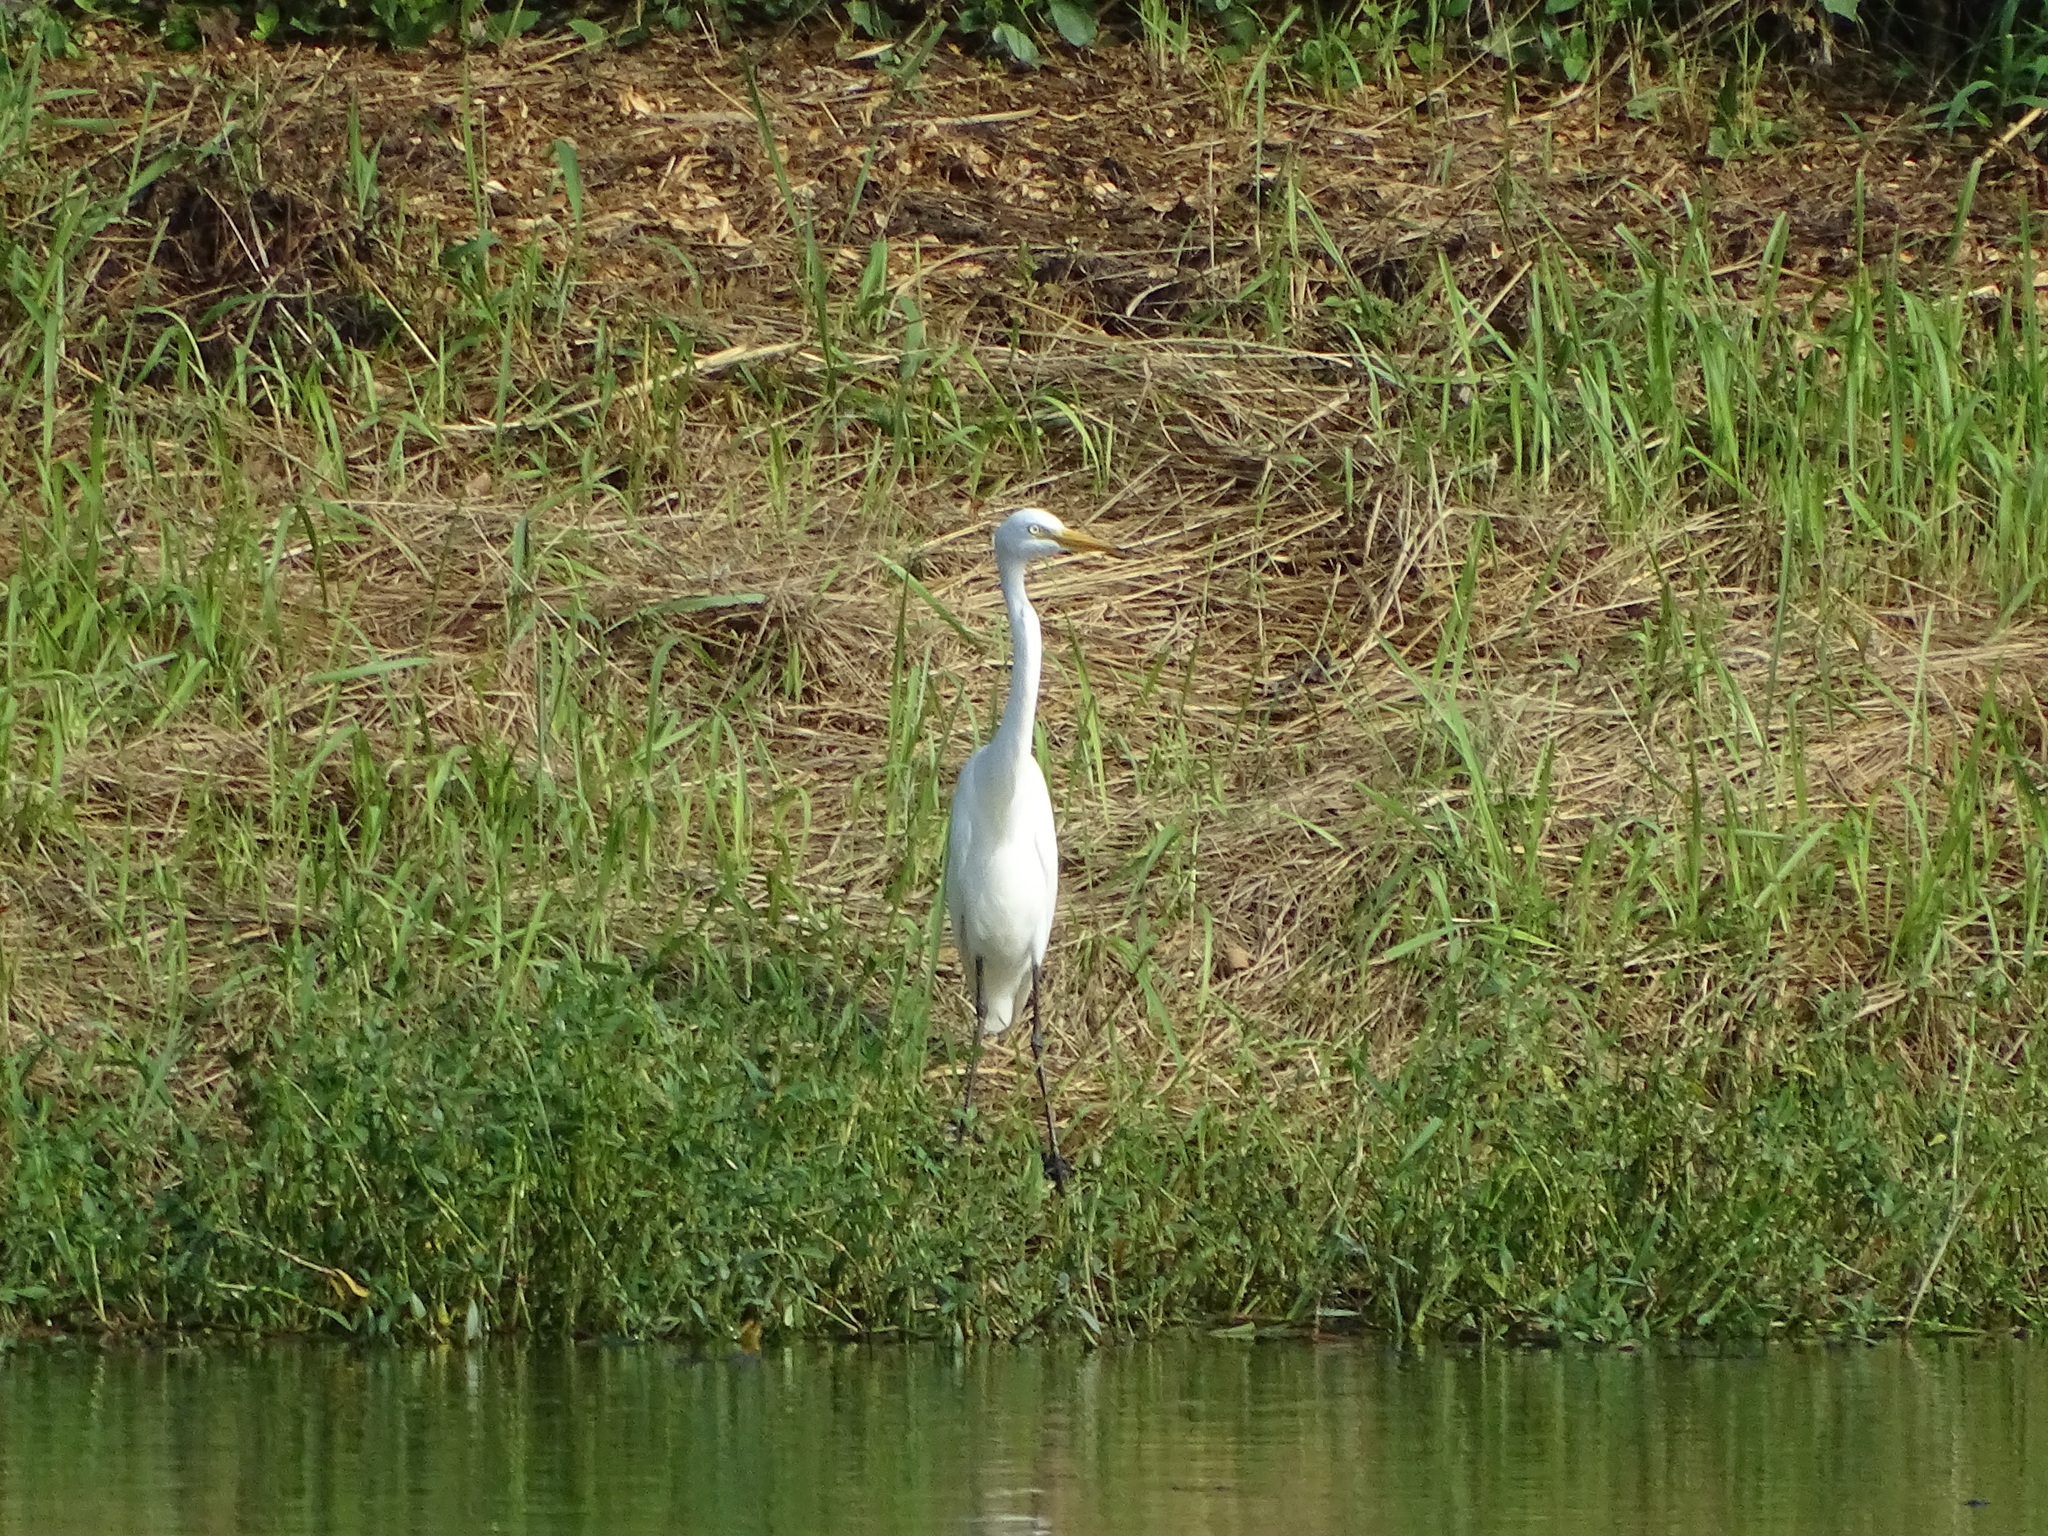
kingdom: Animalia
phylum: Chordata
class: Aves
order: Pelecaniformes
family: Ardeidae
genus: Egretta
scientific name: Egretta intermedia
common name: Intermediate egret
